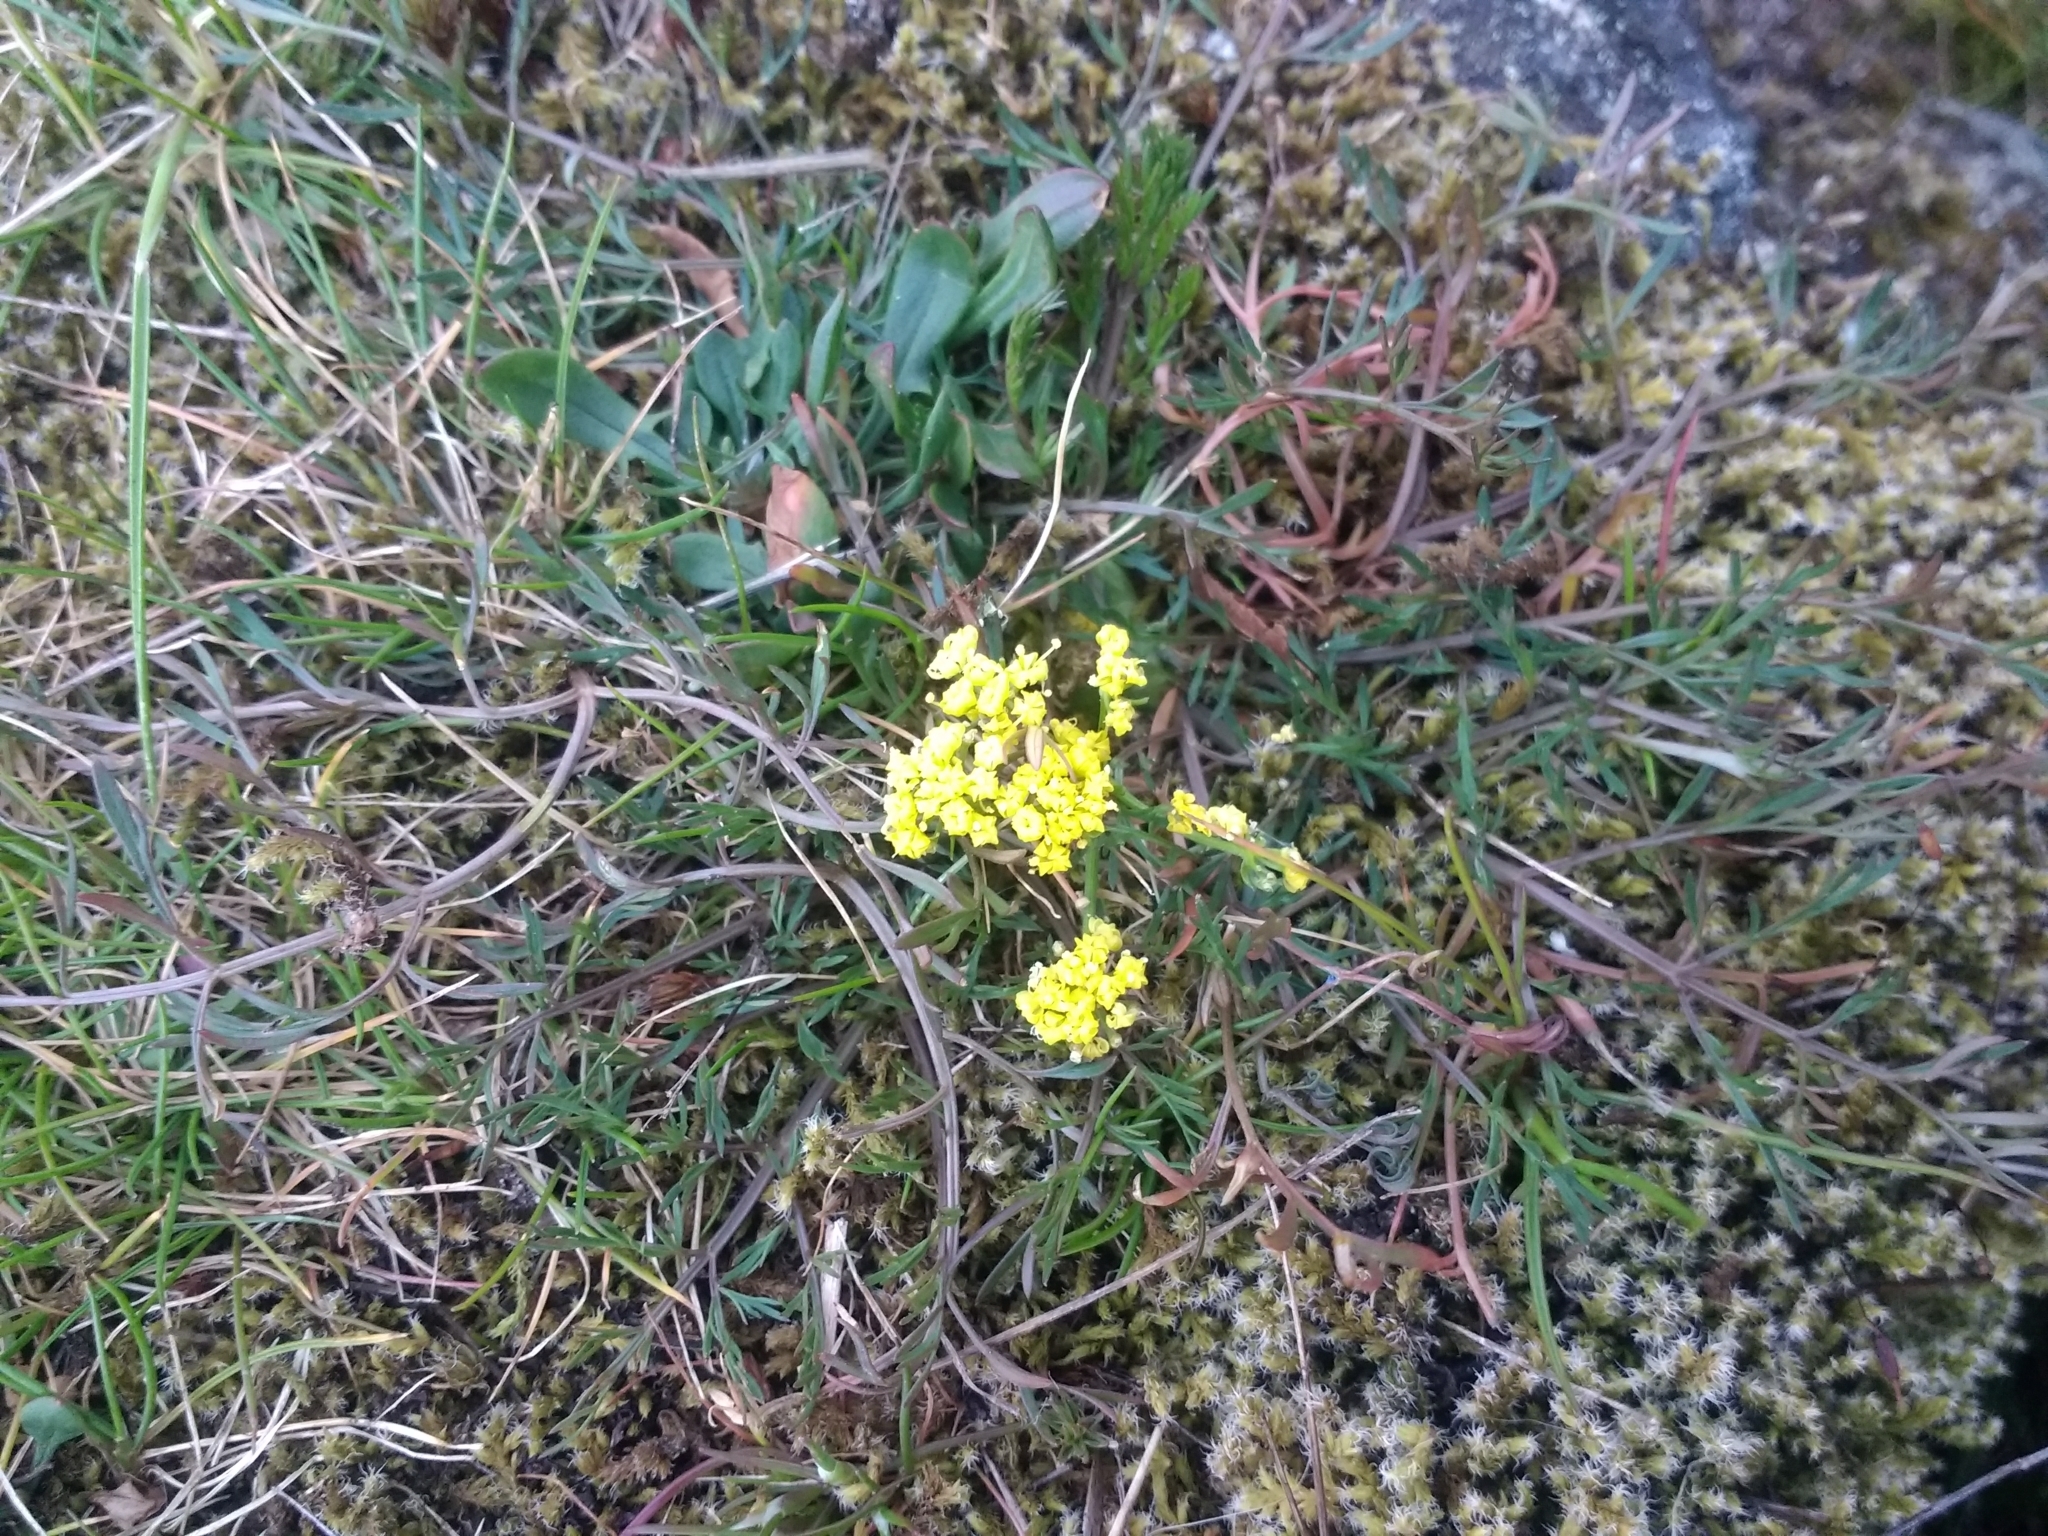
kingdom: Plantae
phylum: Tracheophyta
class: Magnoliopsida
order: Apiales
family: Apiaceae
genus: Lomatium
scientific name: Lomatium utriculatum
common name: Fine-leaf desert-parsley
